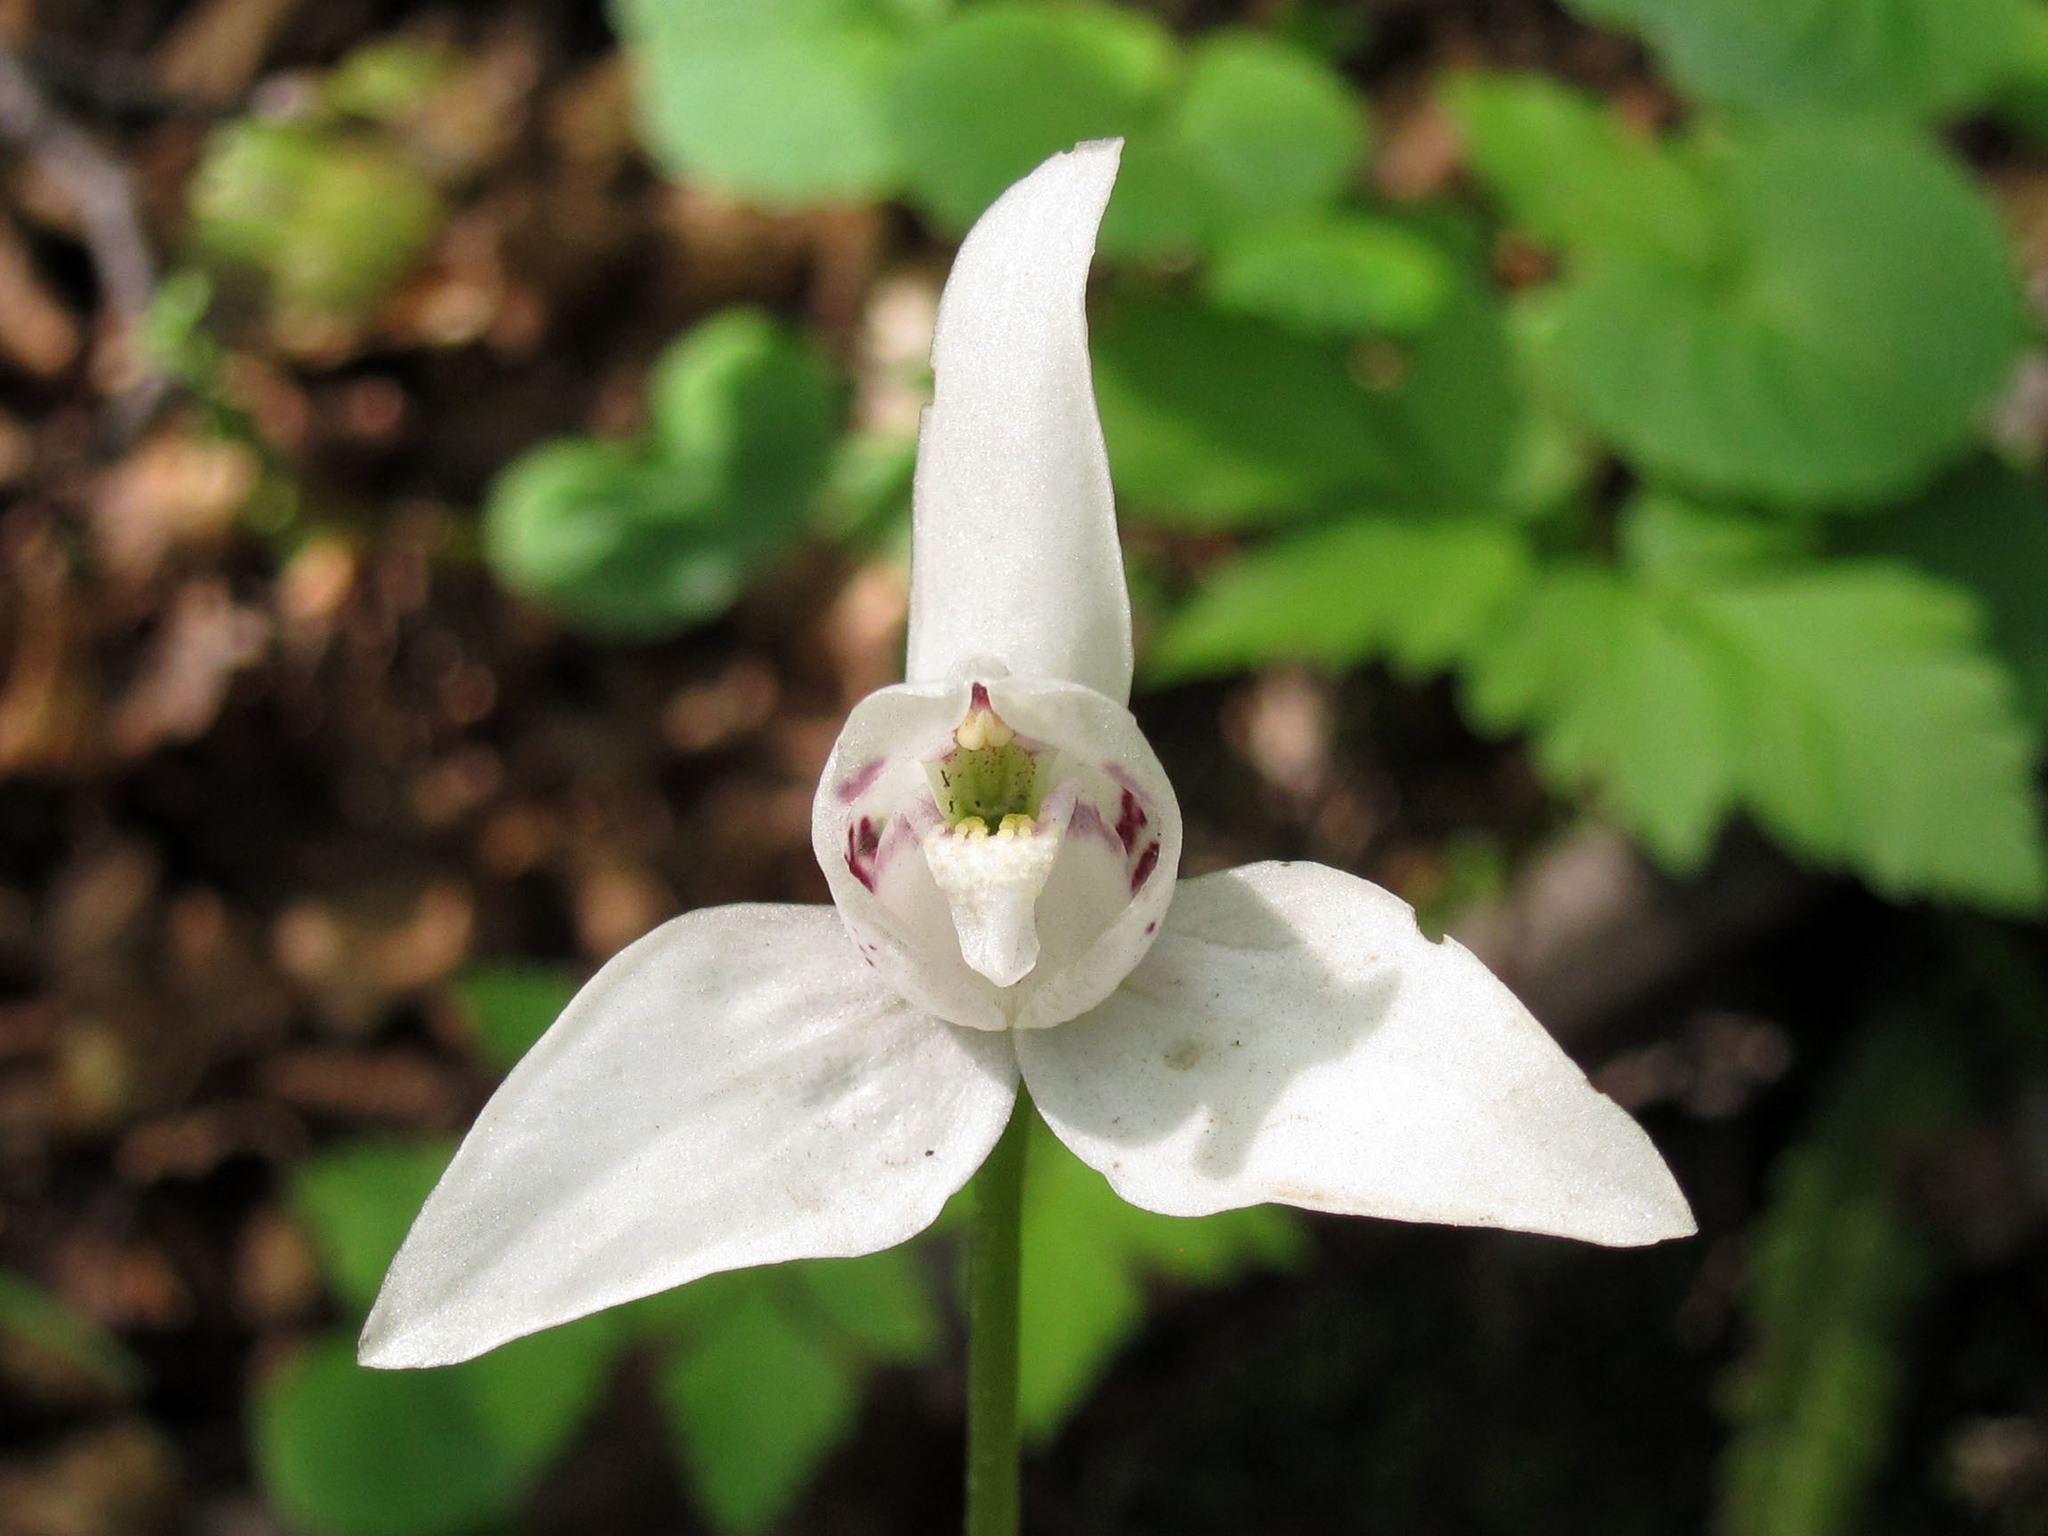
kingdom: Plantae
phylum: Tracheophyta
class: Liliopsida
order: Asparagales
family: Orchidaceae
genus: Codonorchis
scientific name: Codonorchis lessonii
